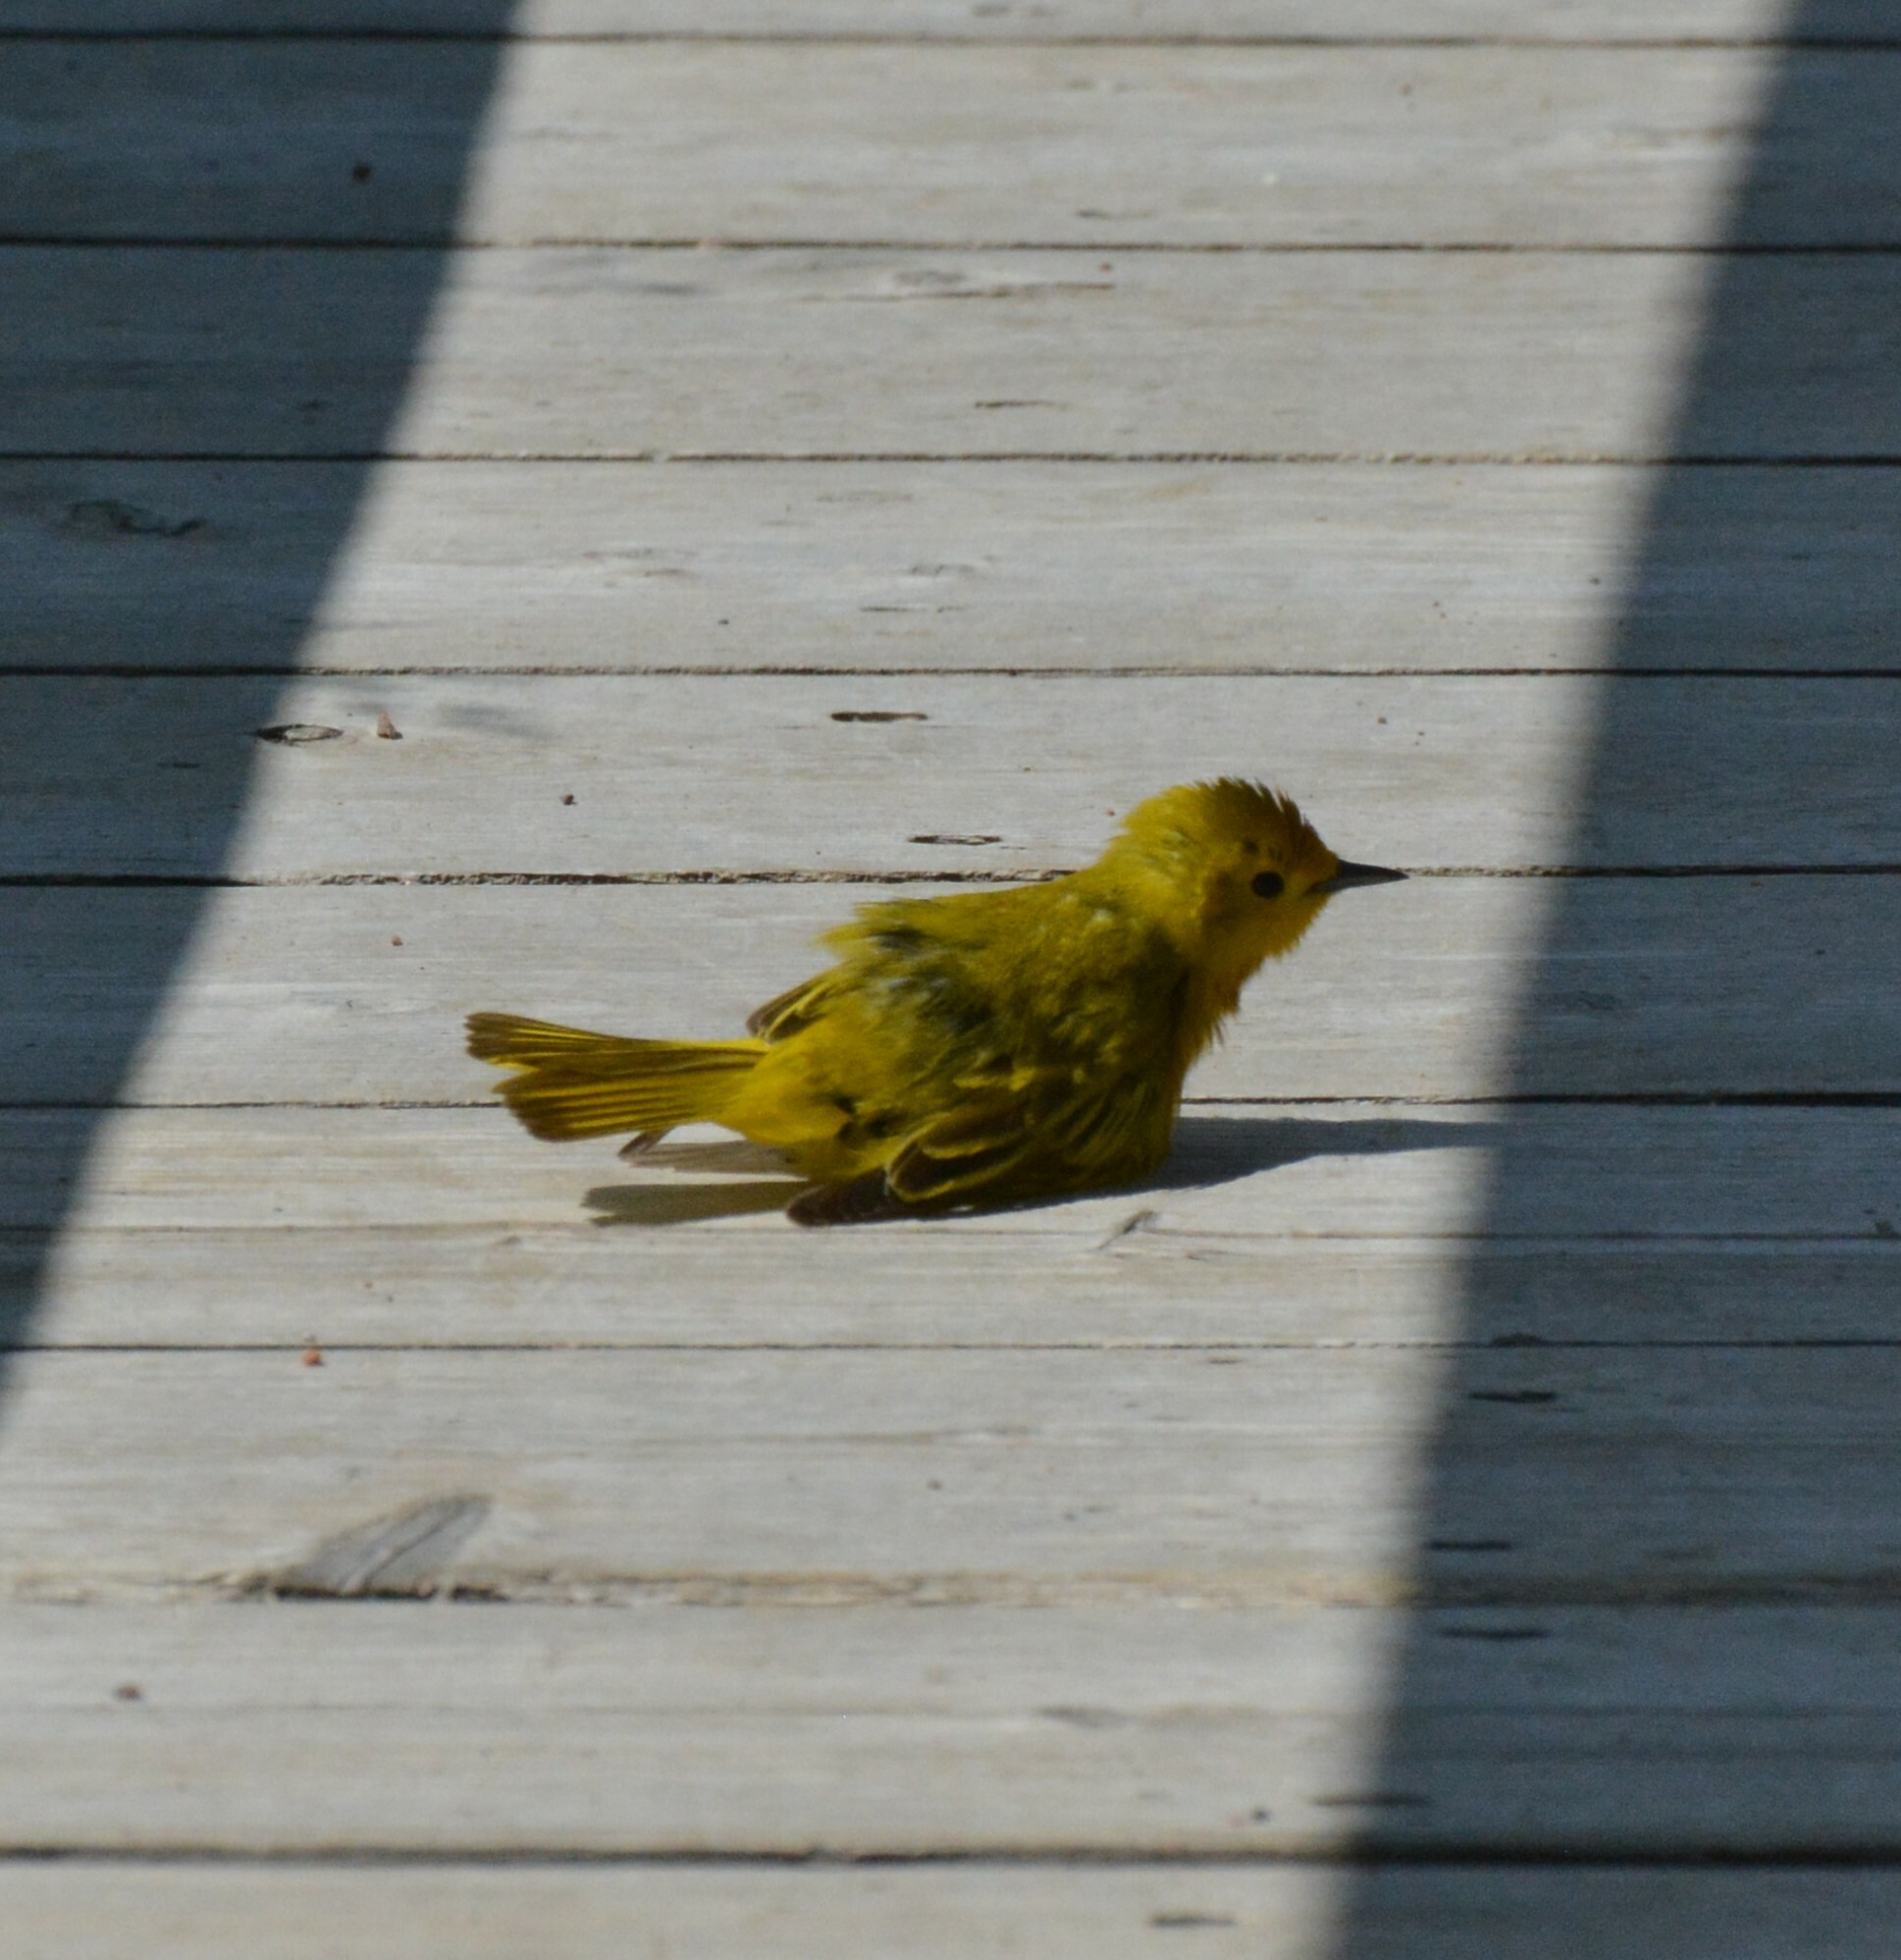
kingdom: Animalia
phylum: Chordata
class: Aves
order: Passeriformes
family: Parulidae
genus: Setophaga
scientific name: Setophaga petechia
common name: Yellow warbler
